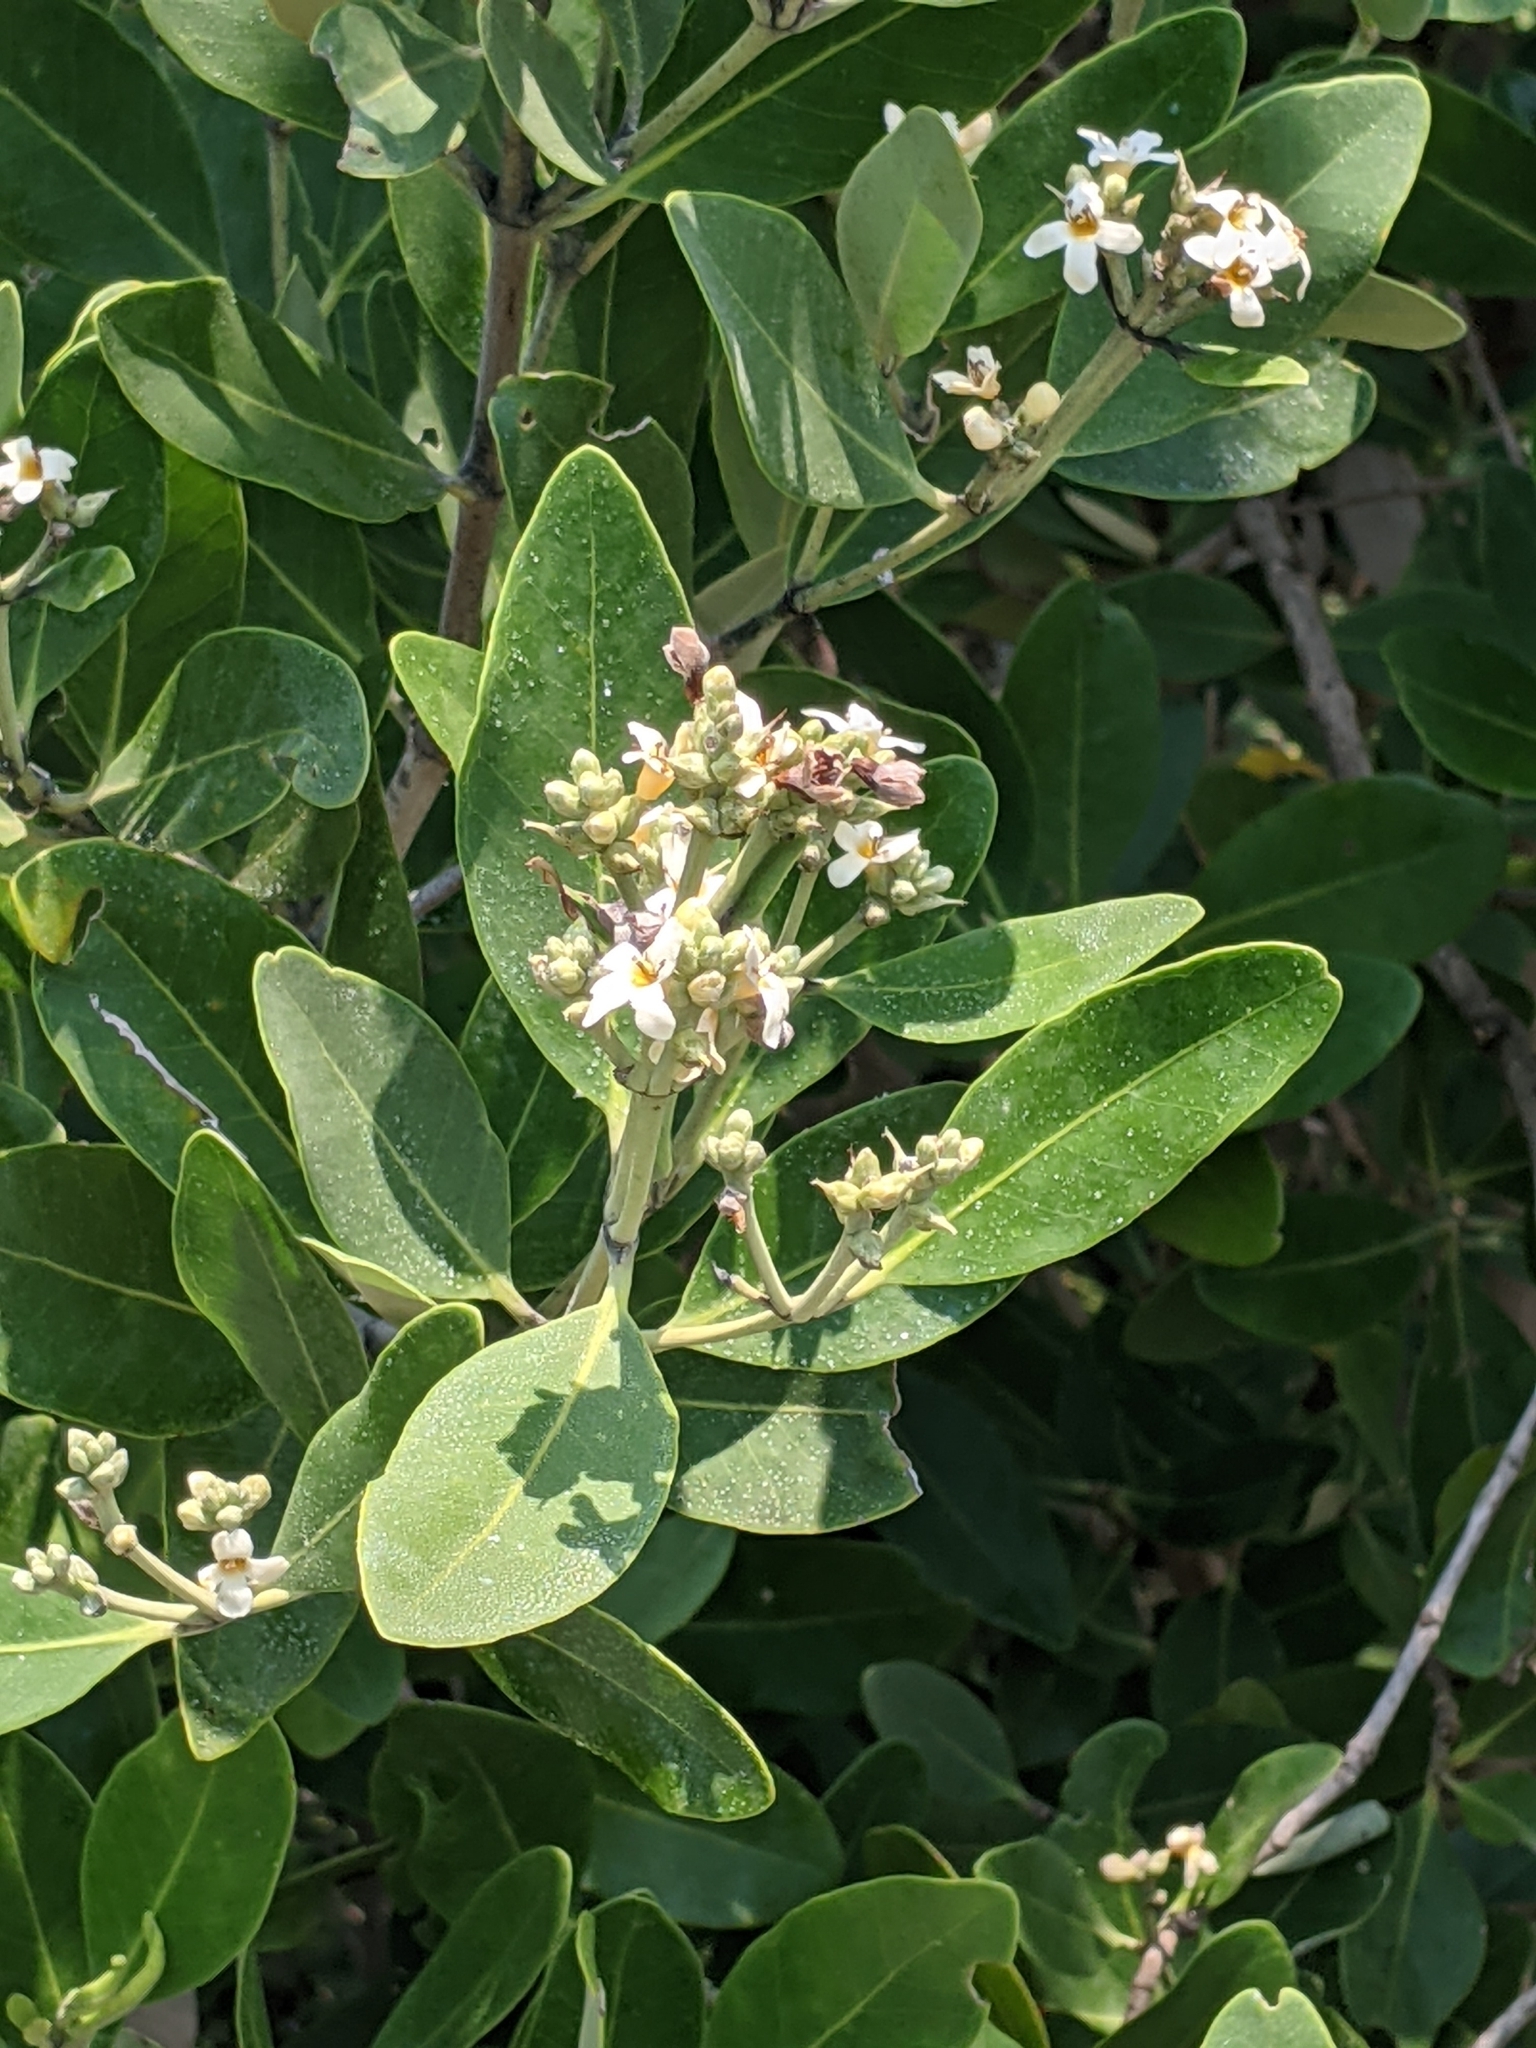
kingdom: Plantae
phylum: Tracheophyta
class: Magnoliopsida
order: Lamiales
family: Acanthaceae
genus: Avicennia
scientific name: Avicennia germinans
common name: Black mangrove
